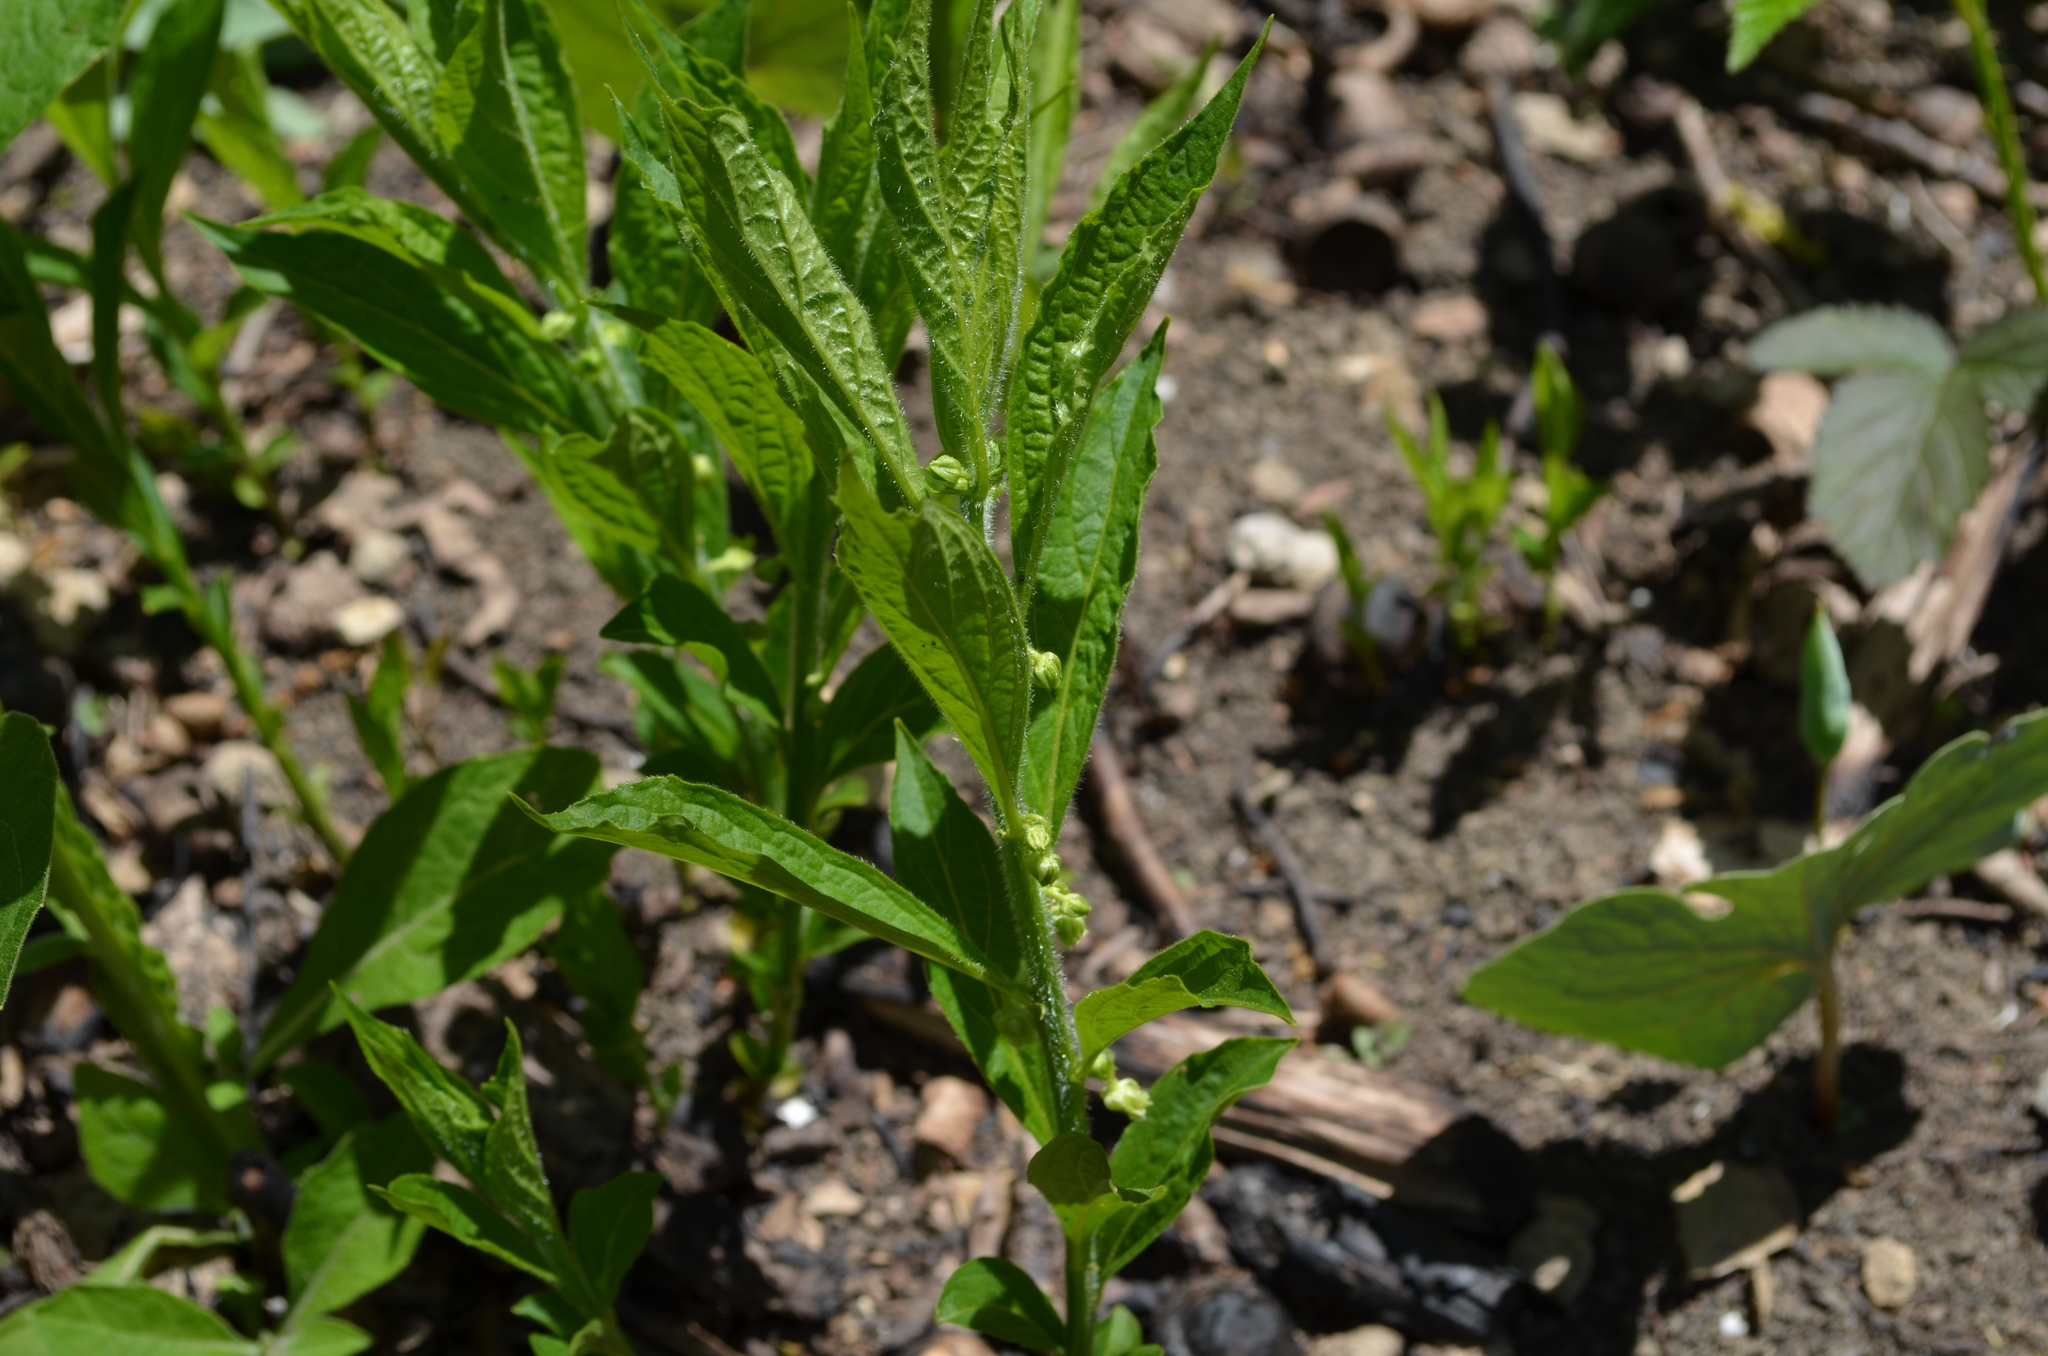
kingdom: Plantae
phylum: Tracheophyta
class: Magnoliopsida
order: Malpighiales
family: Violaceae
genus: Cubelium
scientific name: Cubelium concolor
